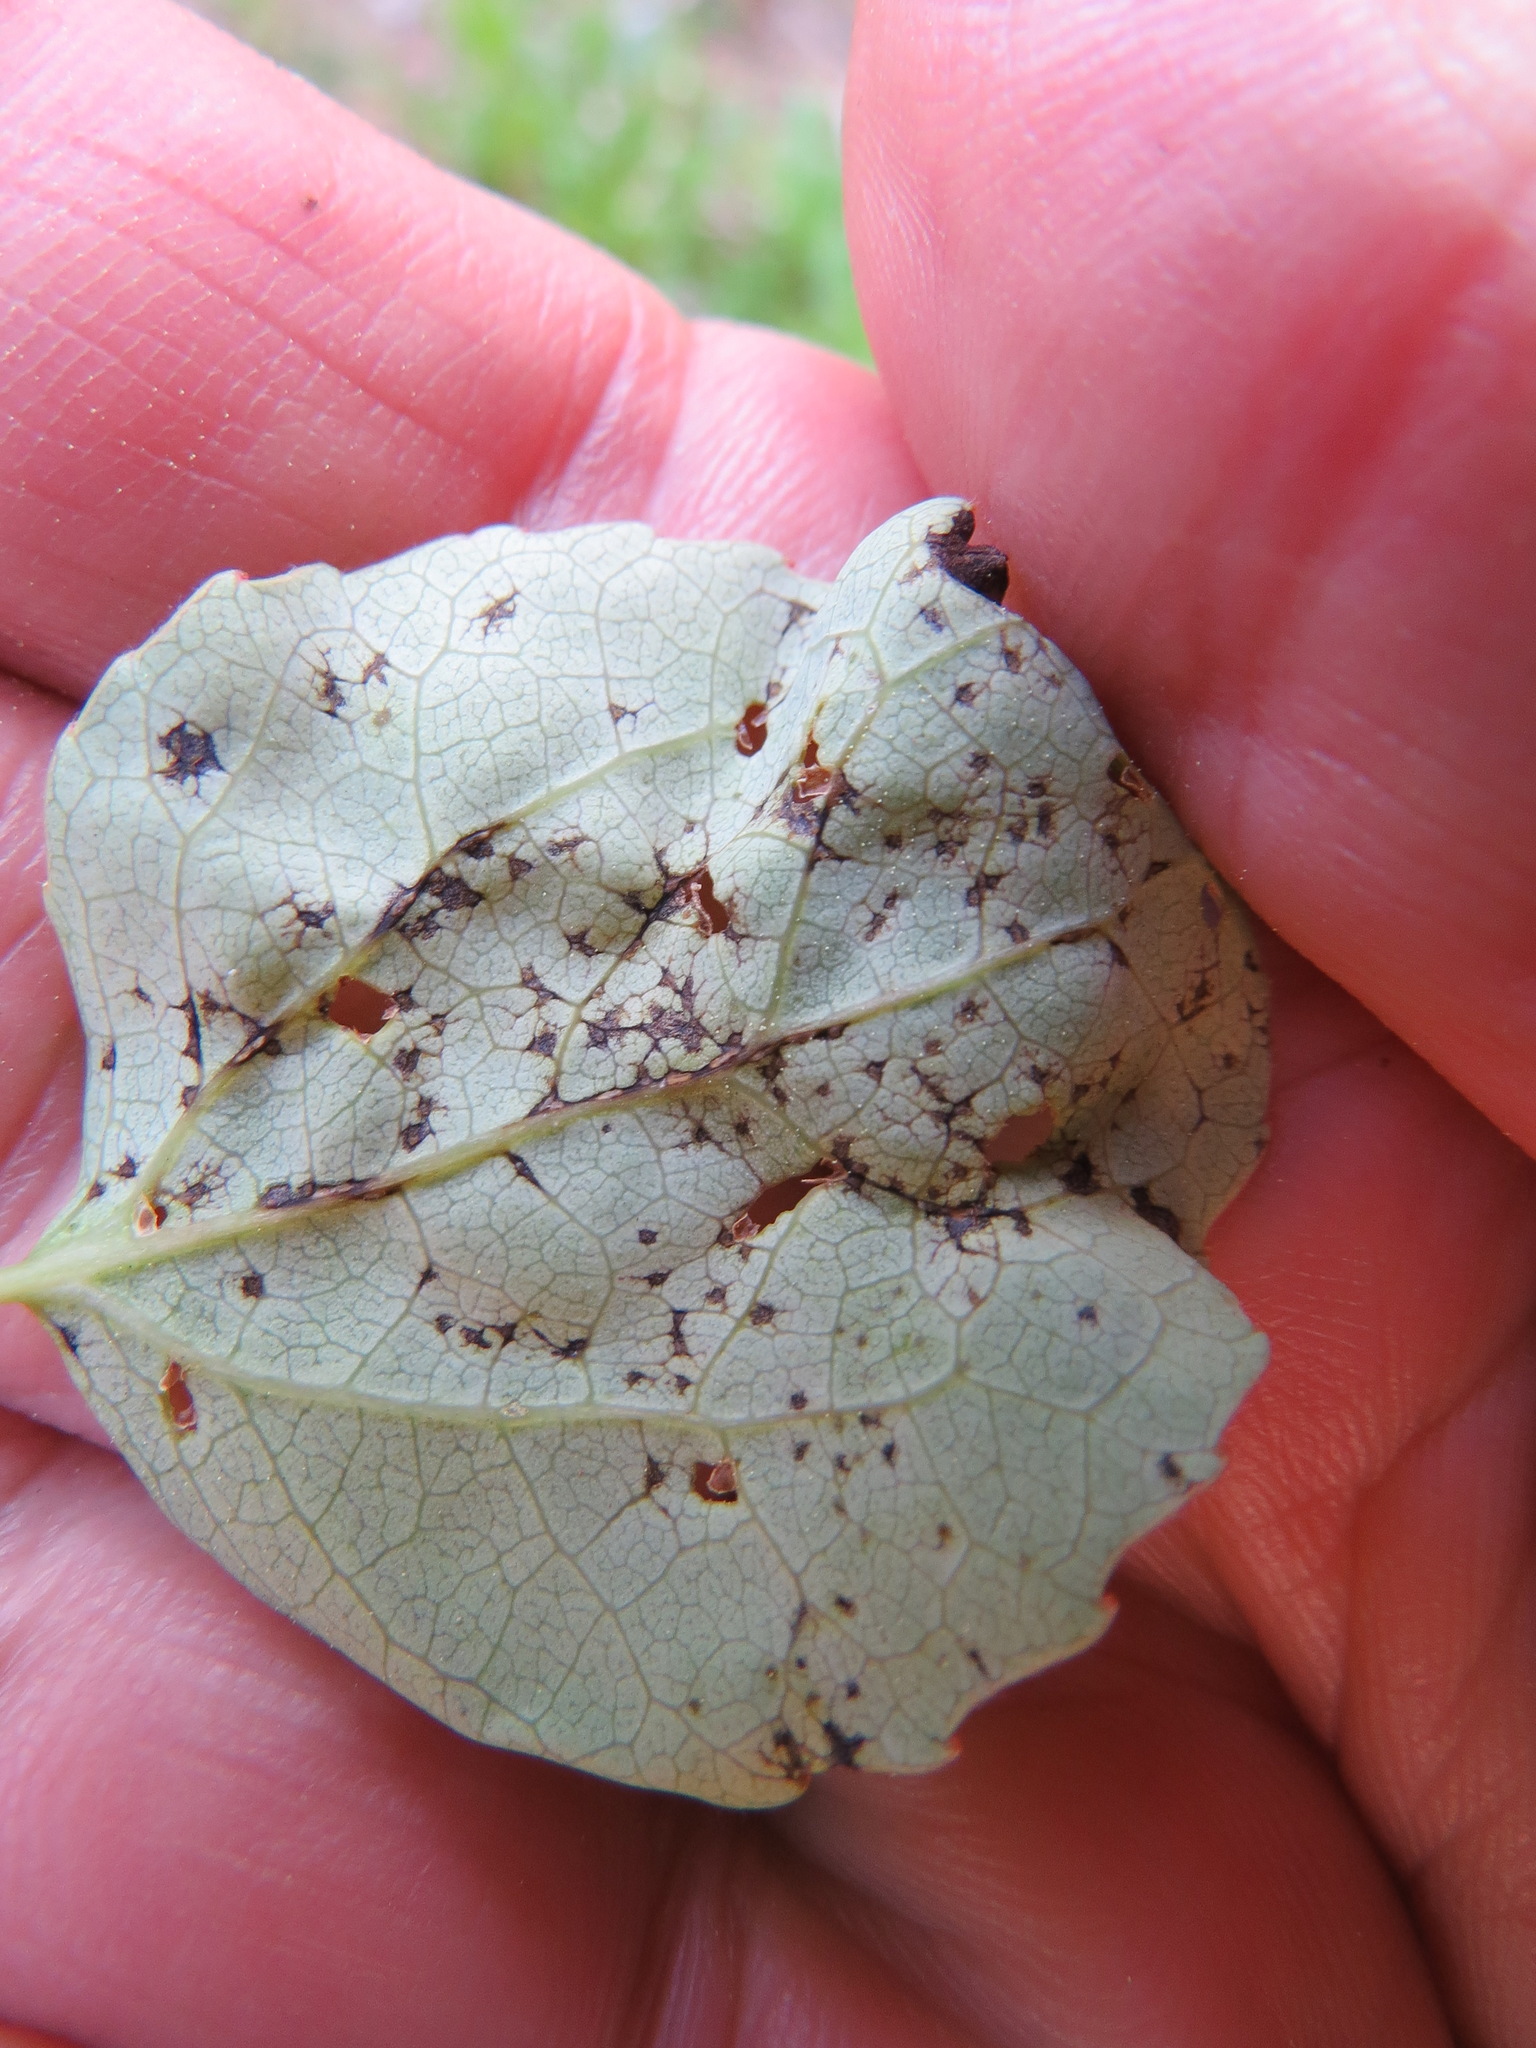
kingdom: Animalia
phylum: Arthropoda
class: Insecta
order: Lepidoptera
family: Gracillariidae
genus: Phyllocnistis
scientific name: Phyllocnistis populiella
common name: Aspen serpentine leafminer moth
